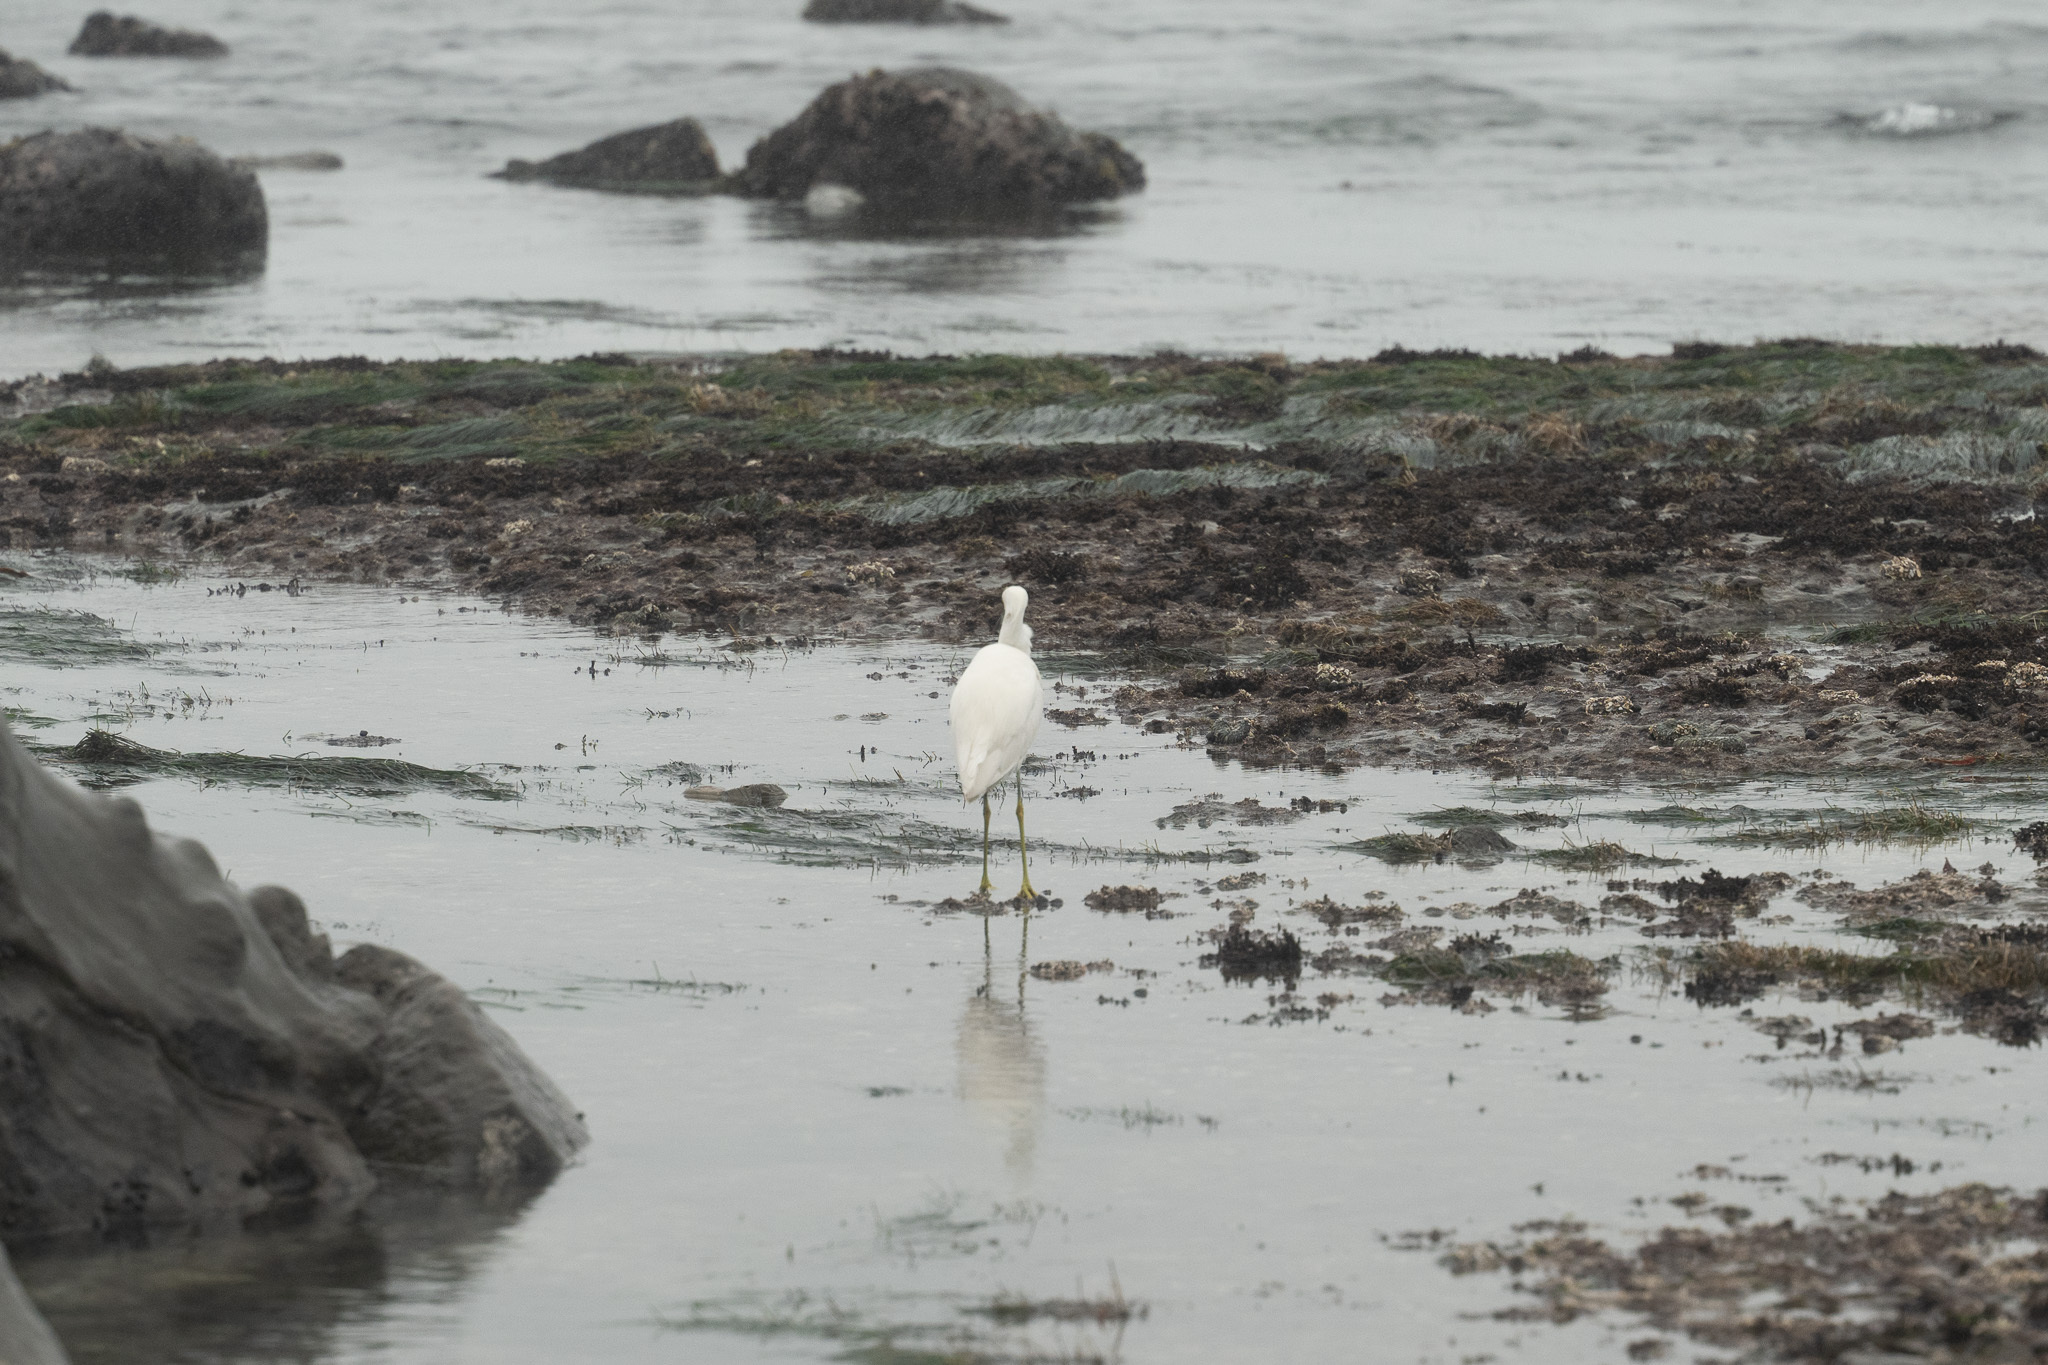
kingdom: Animalia
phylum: Chordata
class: Aves
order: Pelecaniformes
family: Ardeidae
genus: Egretta
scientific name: Egretta thula
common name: Snowy egret
